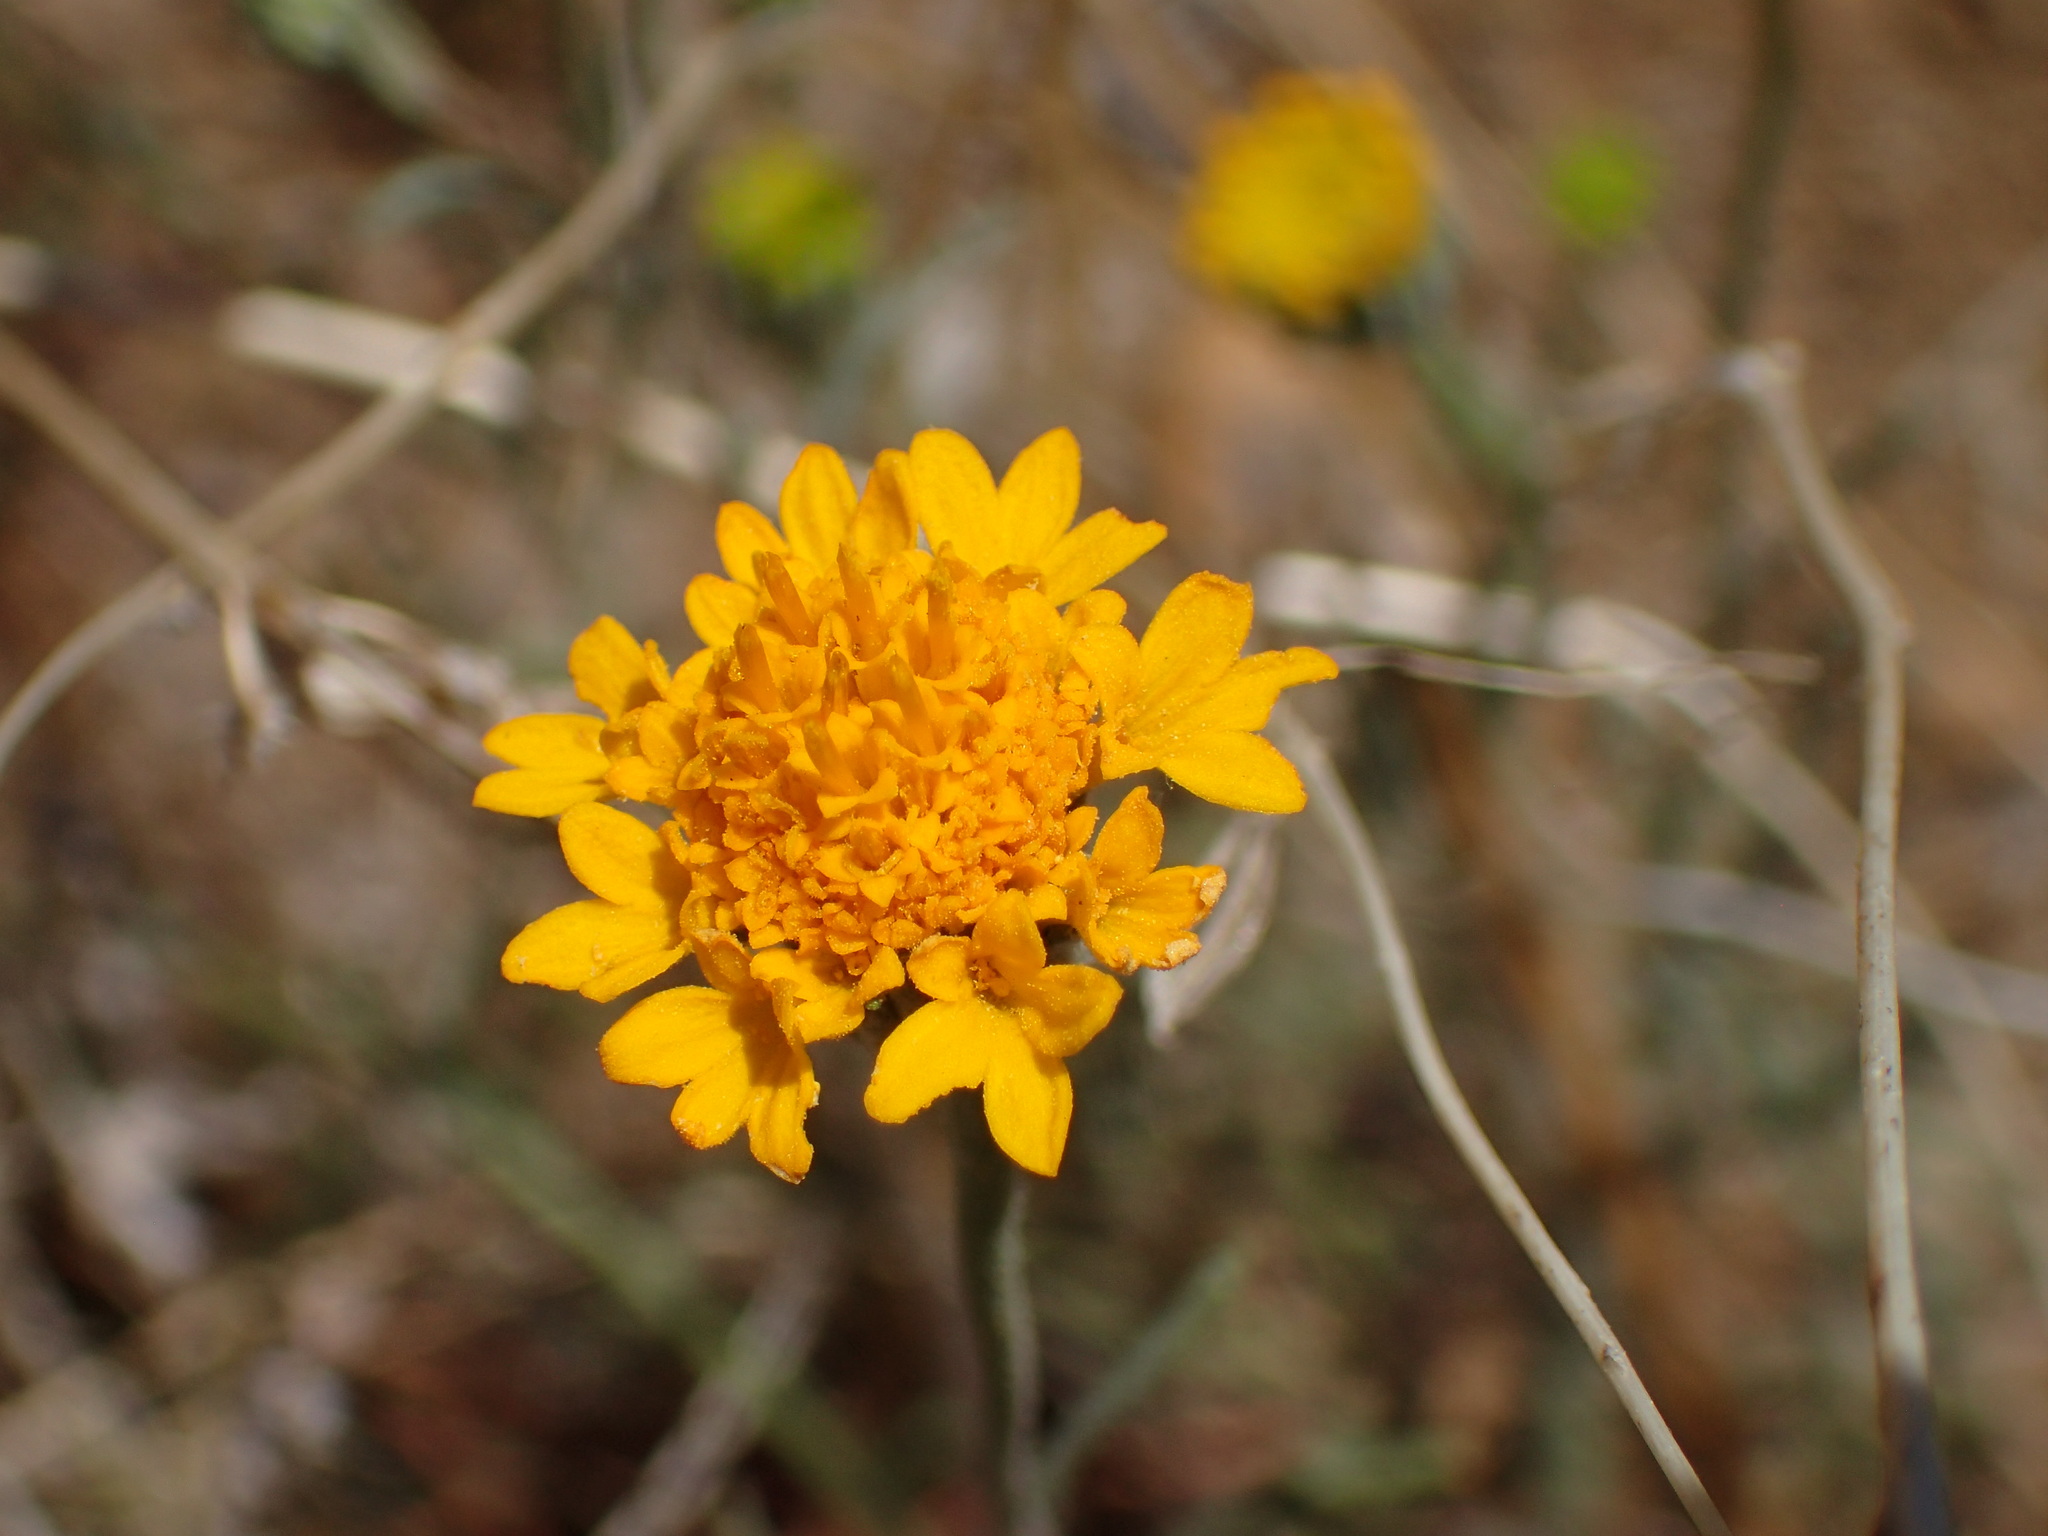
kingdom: Plantae
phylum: Tracheophyta
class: Magnoliopsida
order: Asterales
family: Asteraceae
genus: Chaenactis
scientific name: Chaenactis glabriuscula
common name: Yellow pincushion
